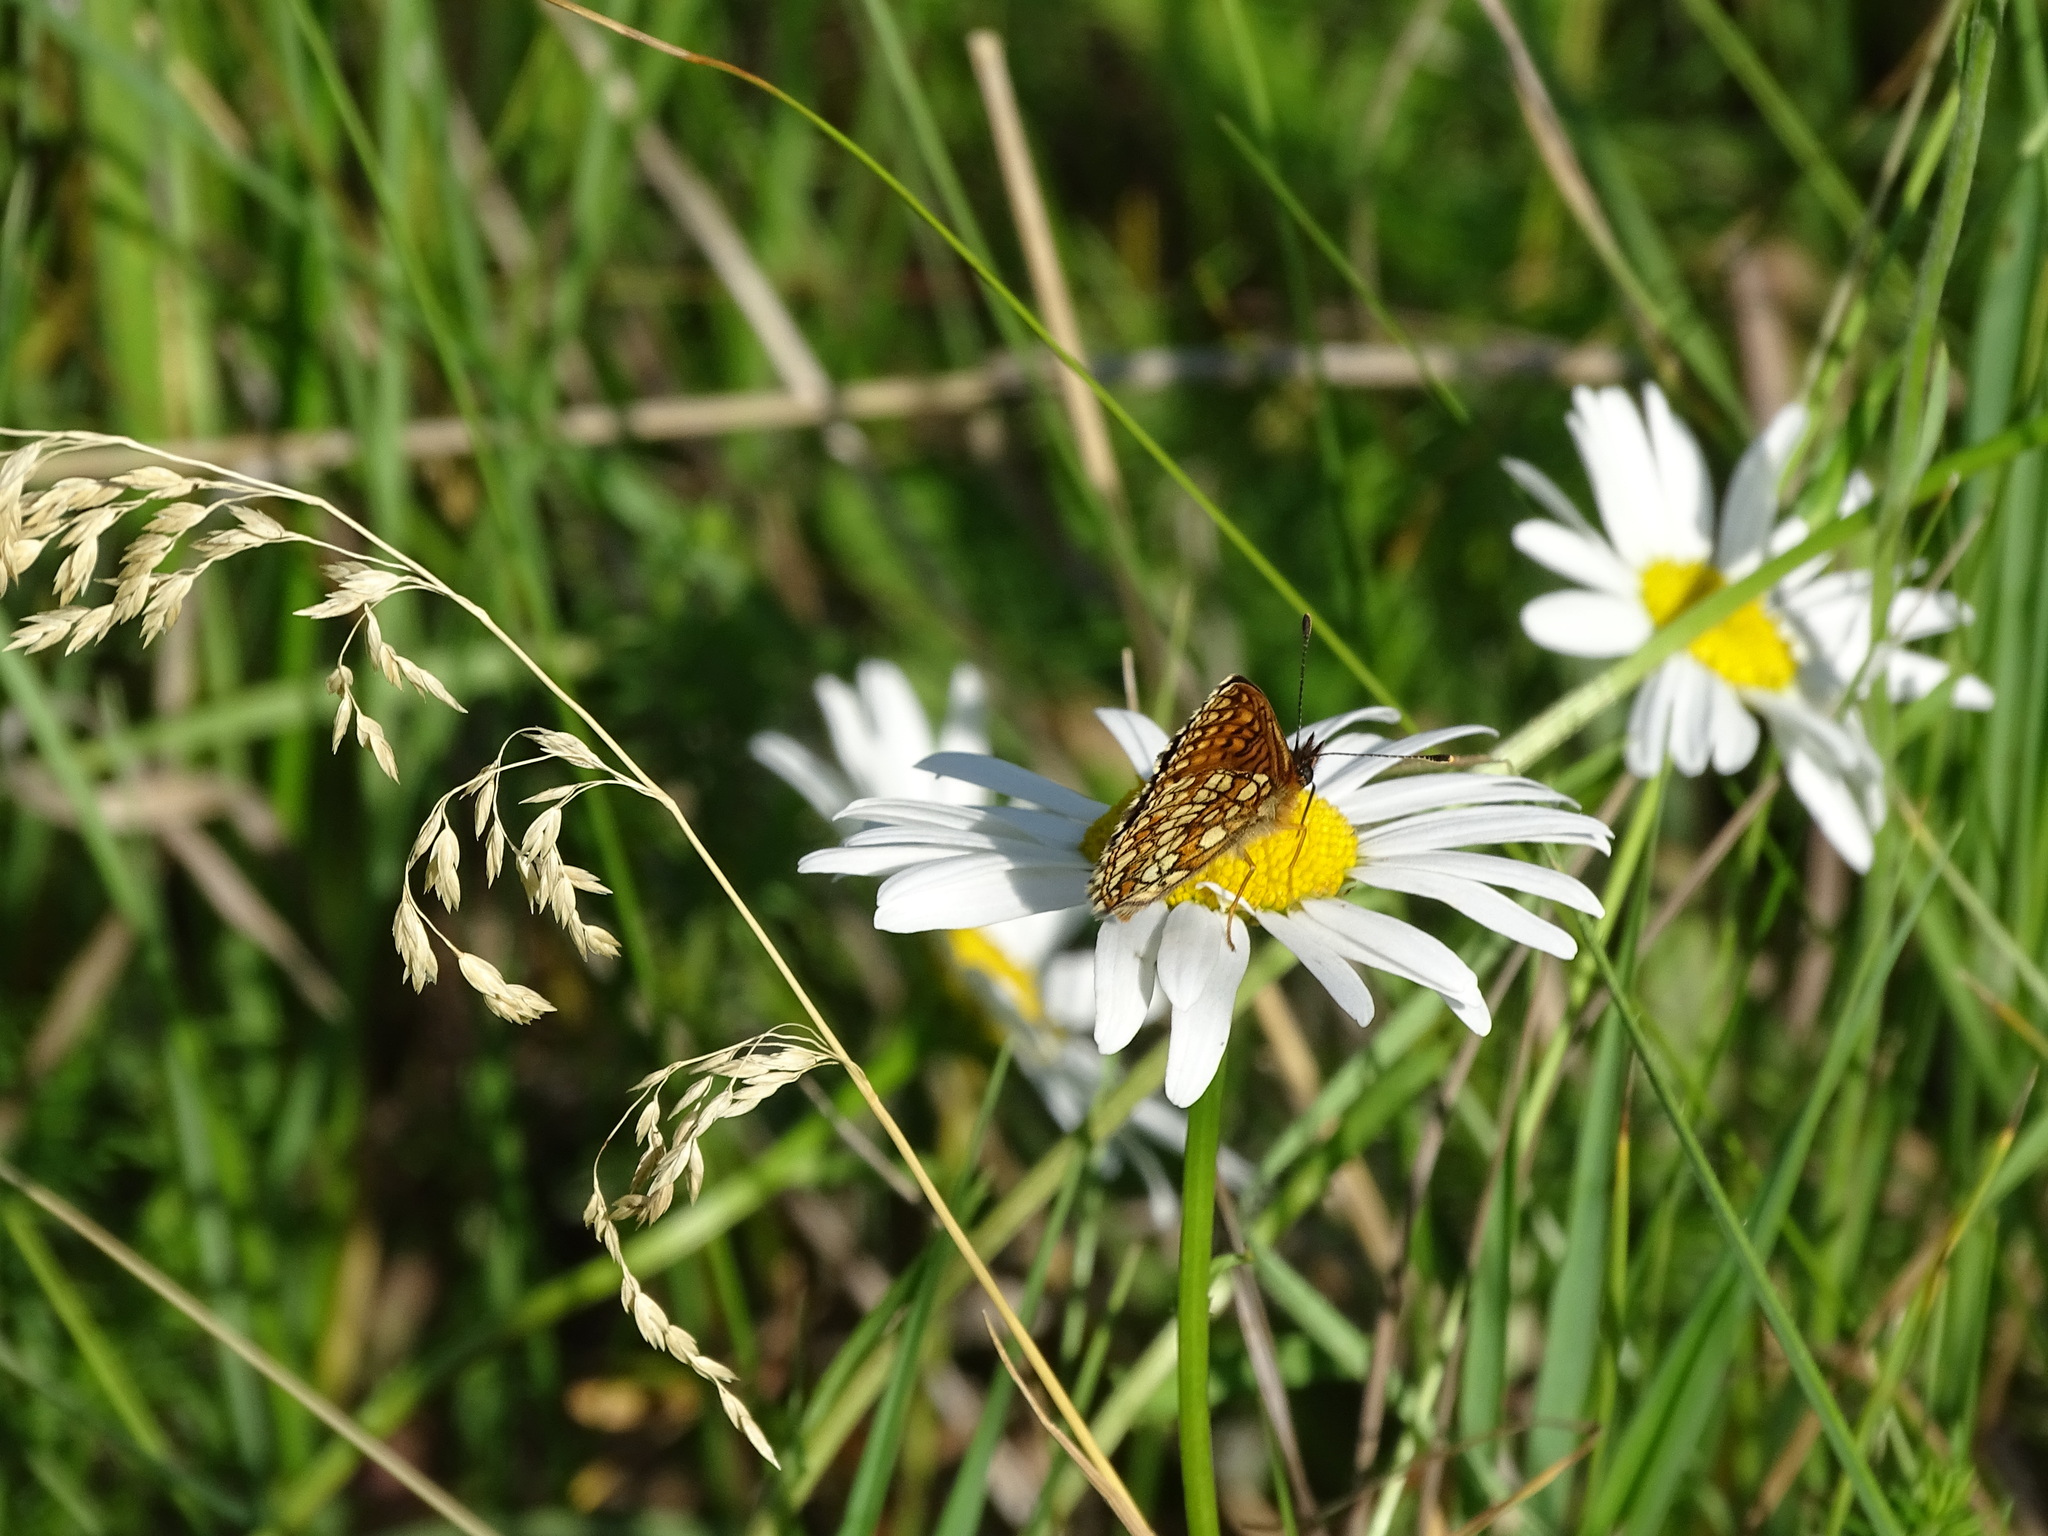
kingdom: Animalia
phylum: Arthropoda
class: Insecta
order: Lepidoptera
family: Nymphalidae
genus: Melitaea
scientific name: Melitaea
